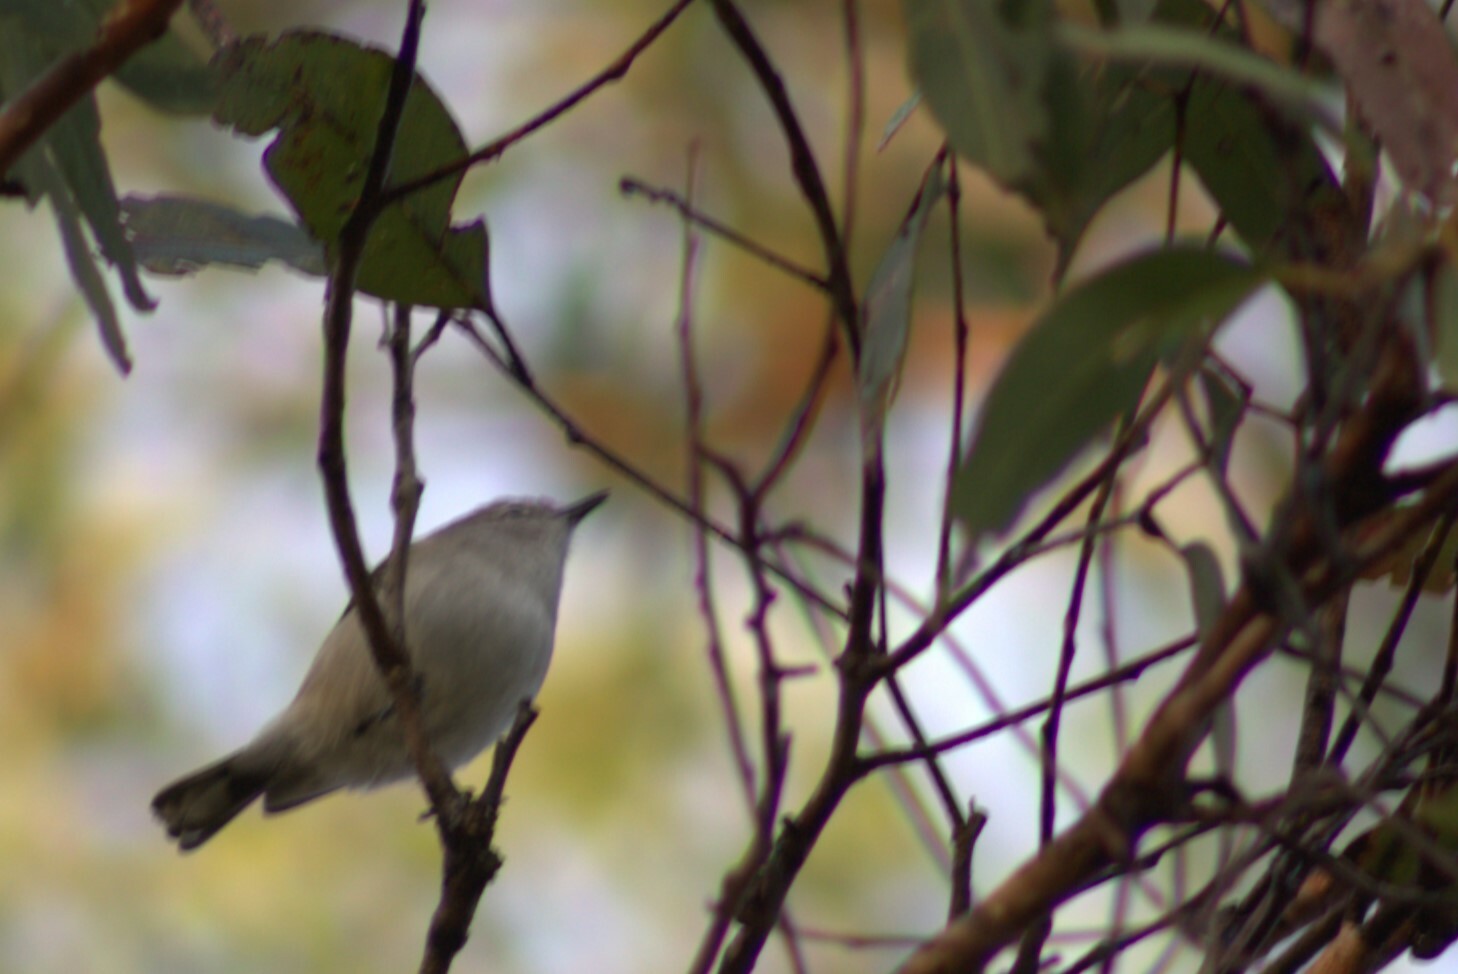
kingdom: Animalia
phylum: Chordata
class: Aves
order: Passeriformes
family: Acanthizidae
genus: Gerygone
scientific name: Gerygone levigaster
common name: Mangrove gerygone
